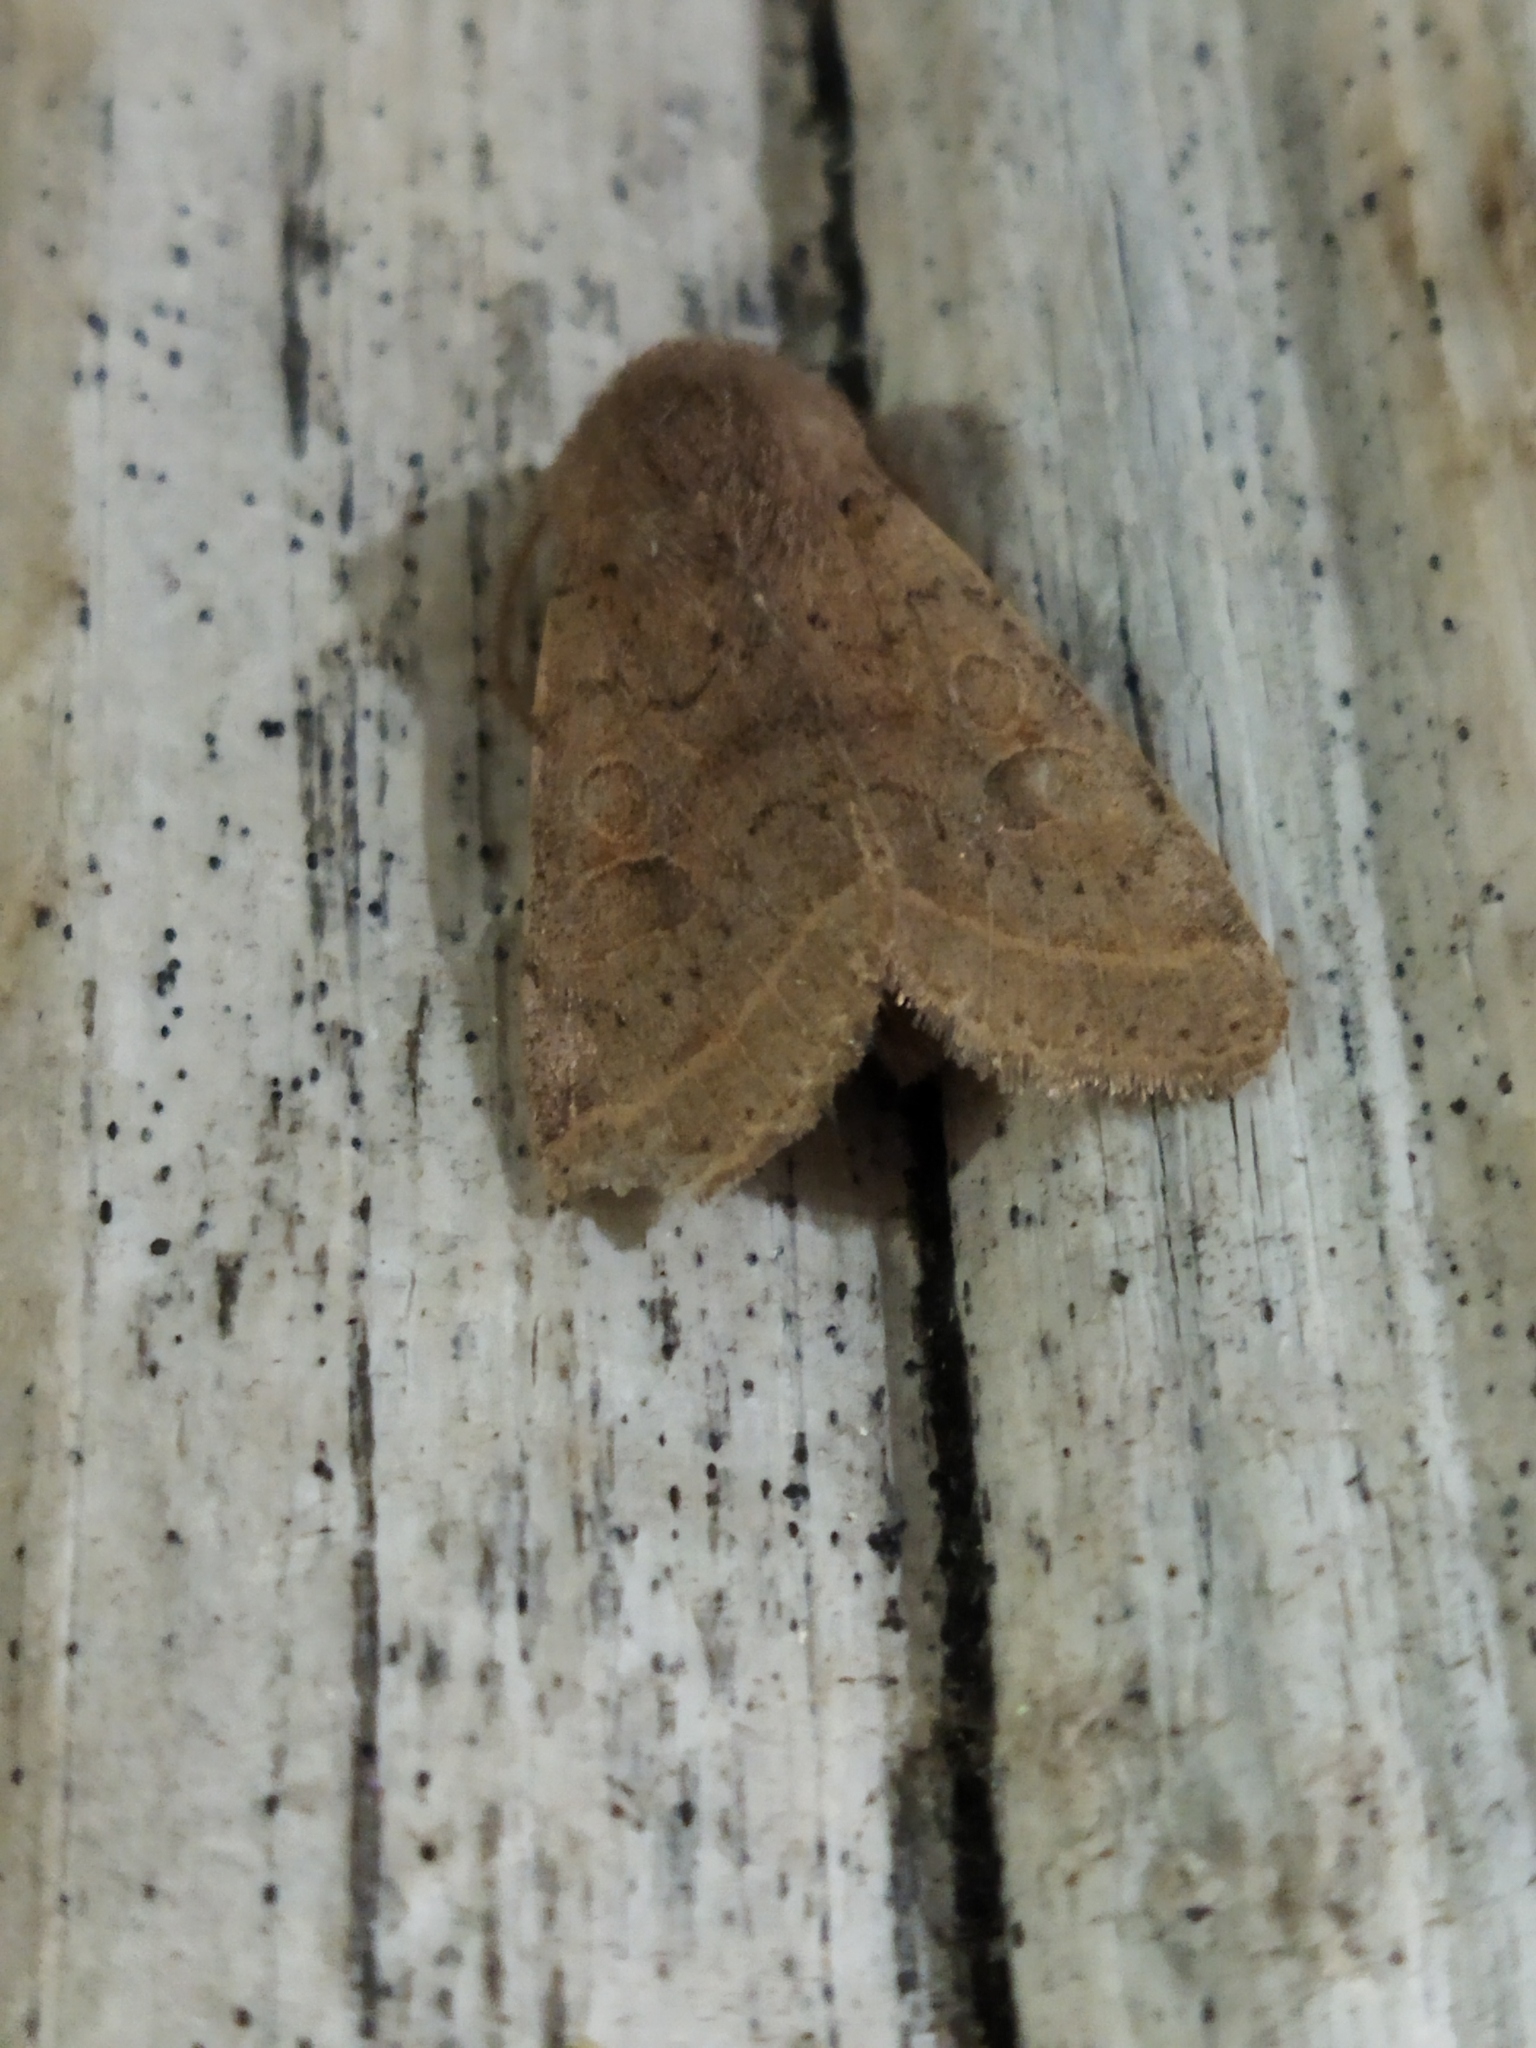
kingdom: Animalia
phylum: Arthropoda
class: Insecta
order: Lepidoptera
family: Noctuidae
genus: Orthosia
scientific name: Orthosia cerasi
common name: Common quaker
